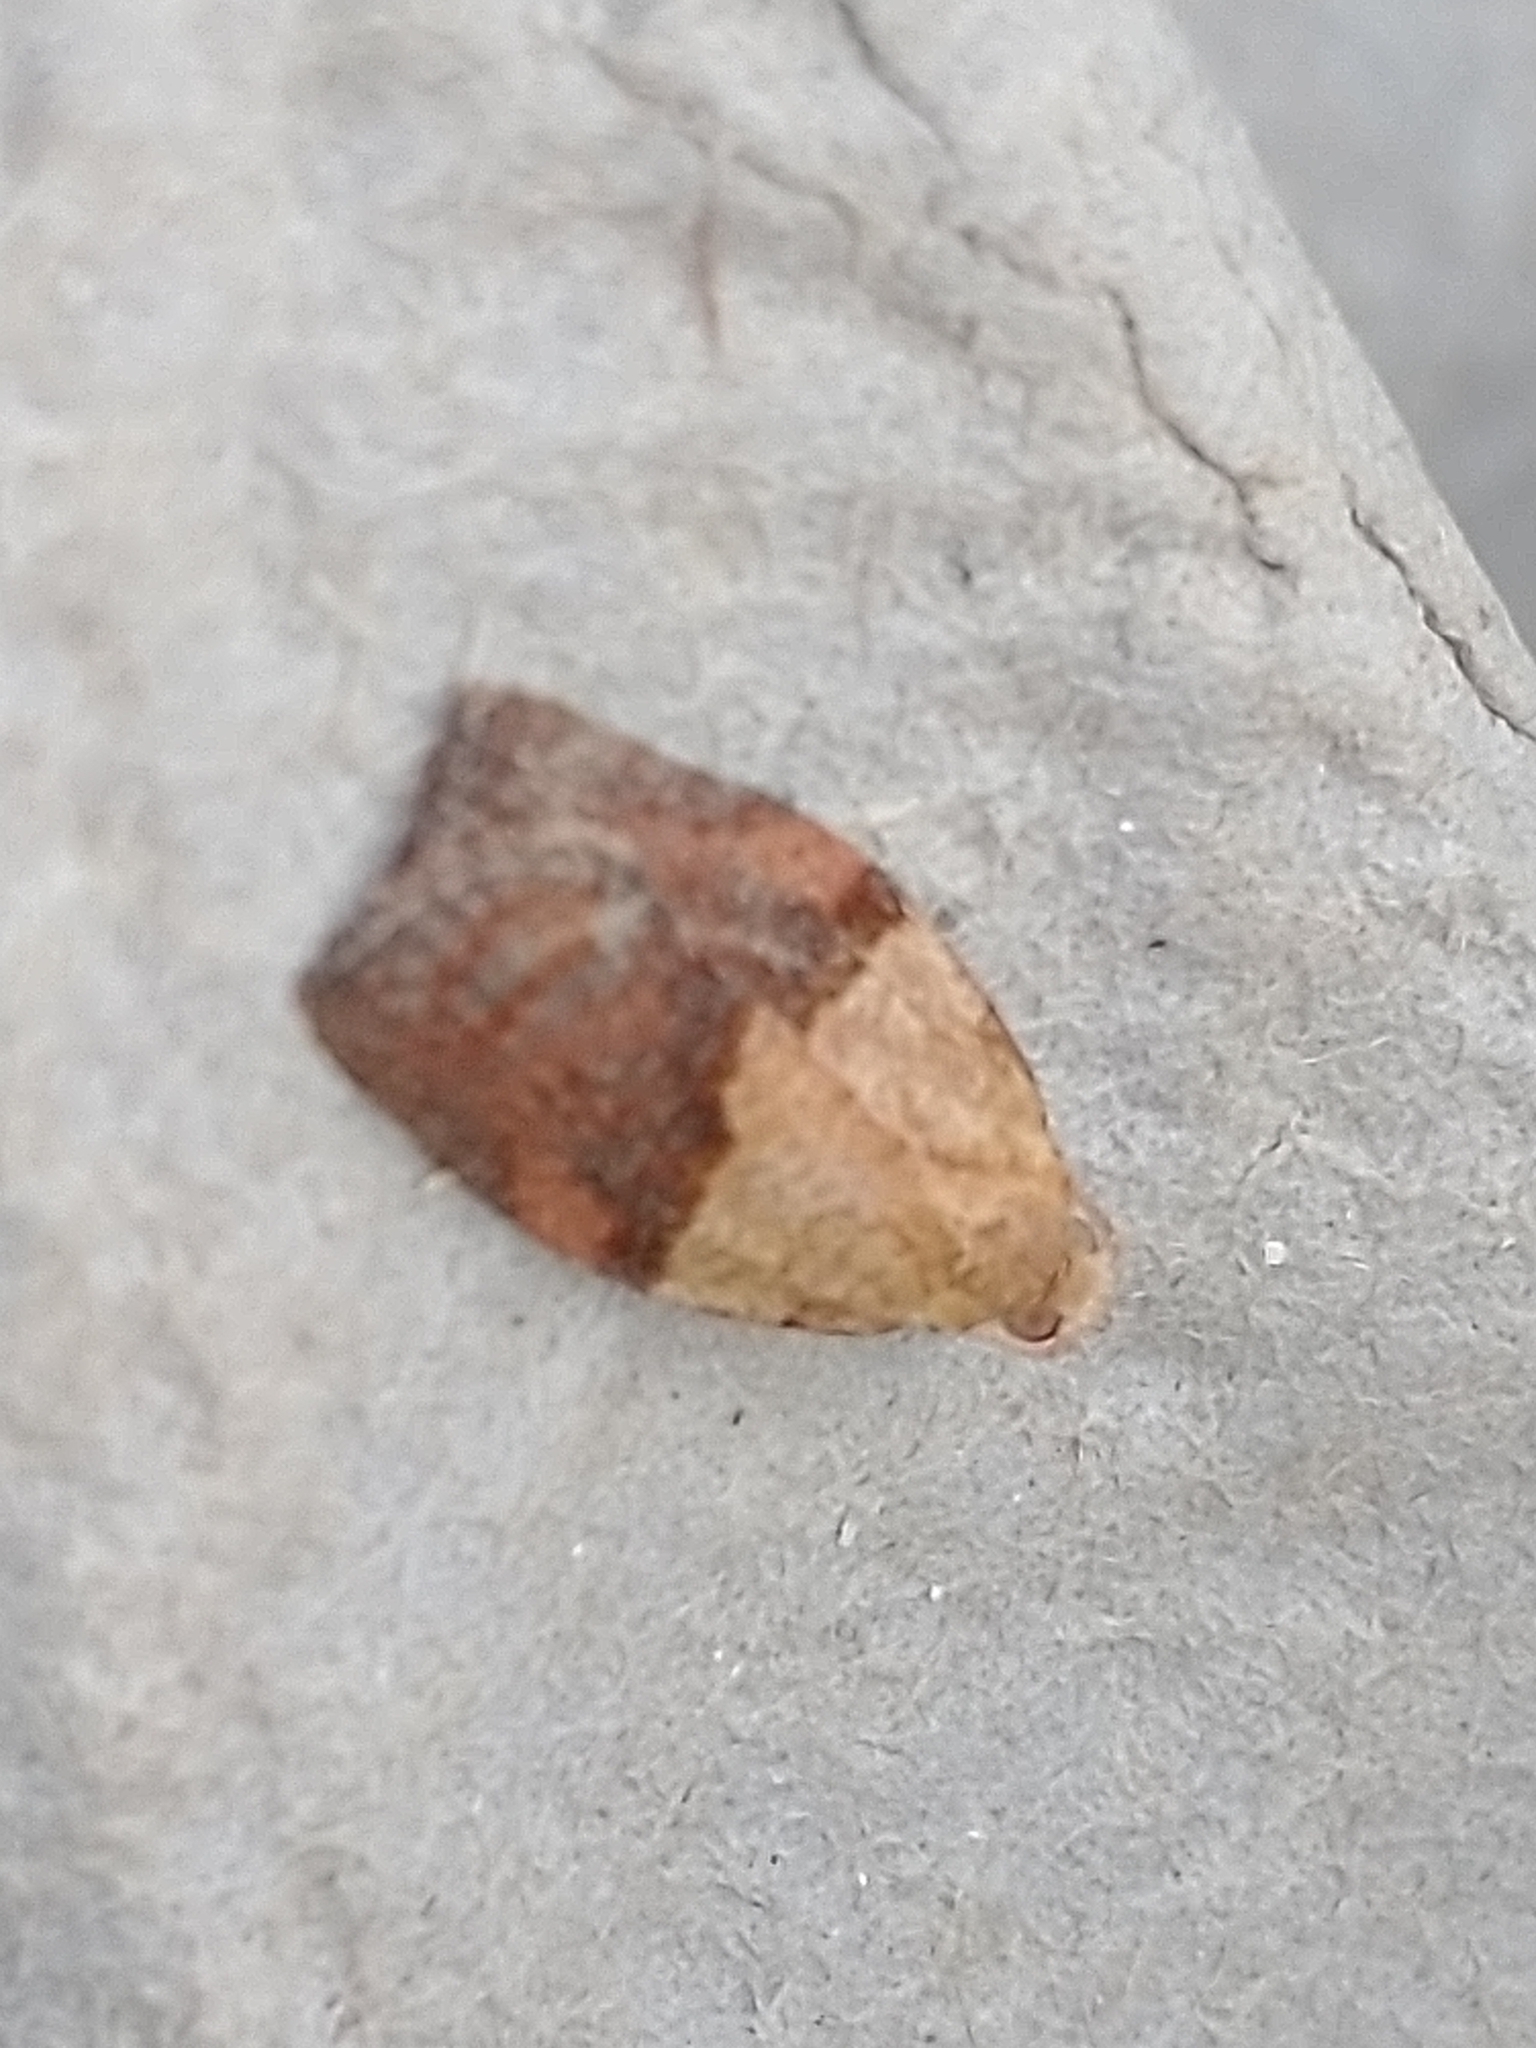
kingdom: Animalia
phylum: Arthropoda
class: Insecta
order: Lepidoptera
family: Tortricidae
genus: Epiphyas
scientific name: Epiphyas postvittana
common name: Light brown apple moth
